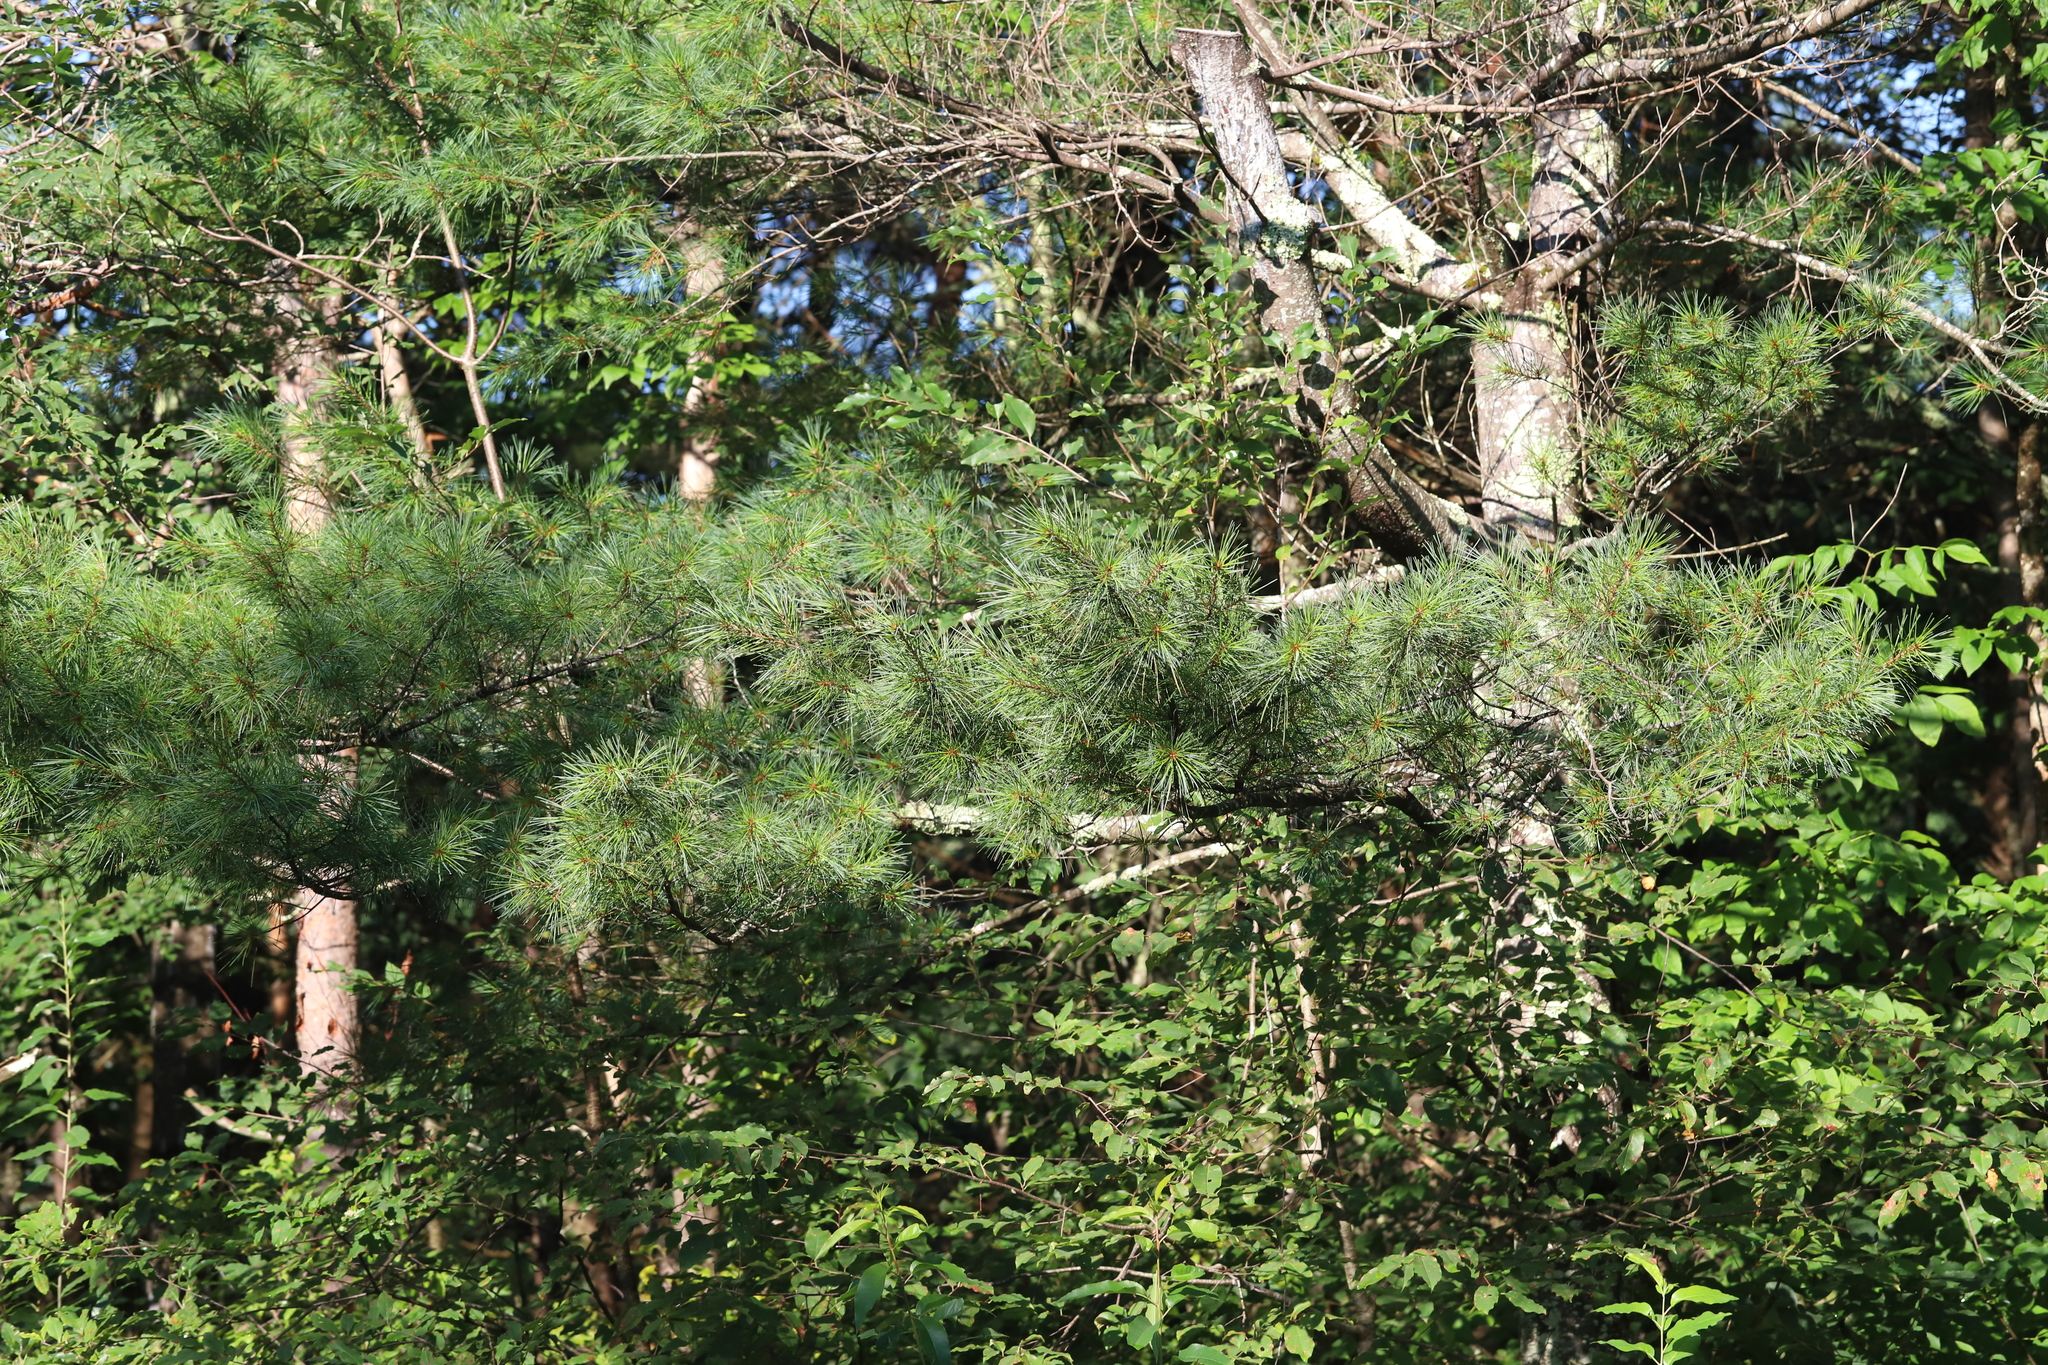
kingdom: Plantae
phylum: Tracheophyta
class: Pinopsida
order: Pinales
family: Pinaceae
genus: Pinus
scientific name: Pinus strobus
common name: Weymouth pine
